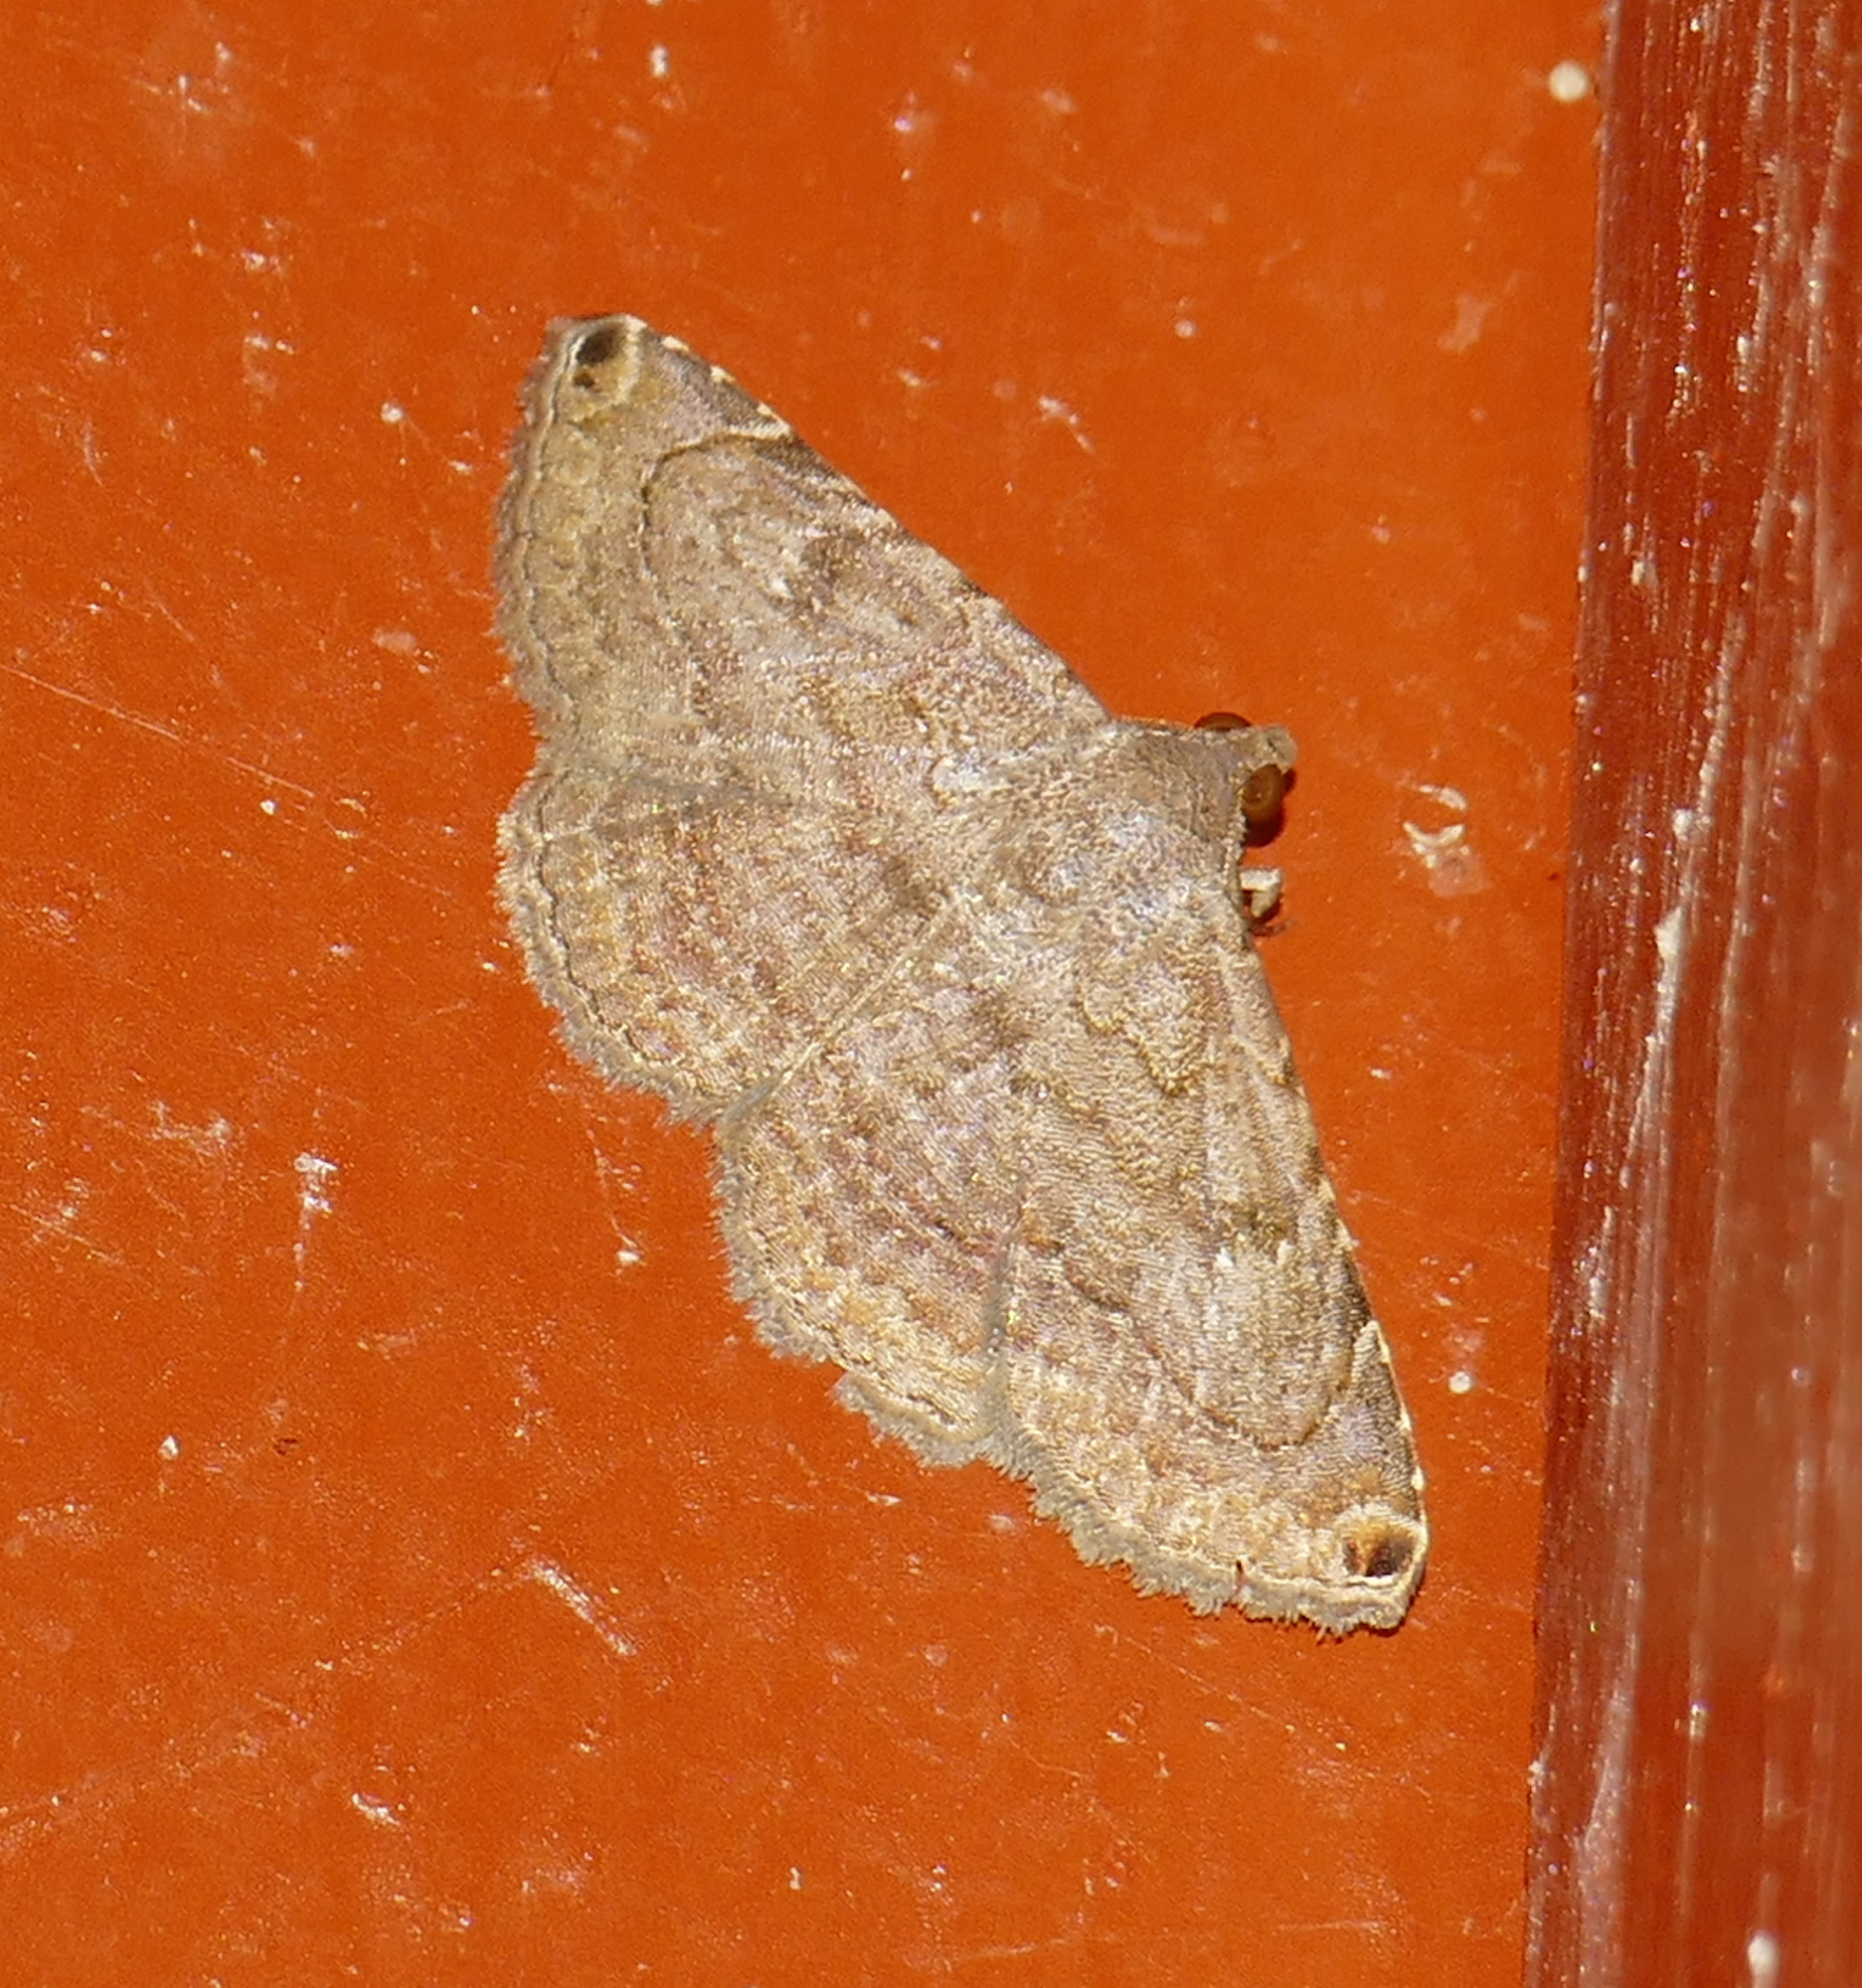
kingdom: Animalia
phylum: Arthropoda
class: Insecta
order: Lepidoptera
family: Erebidae
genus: Toxonprucha
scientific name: Toxonprucha pardalis
